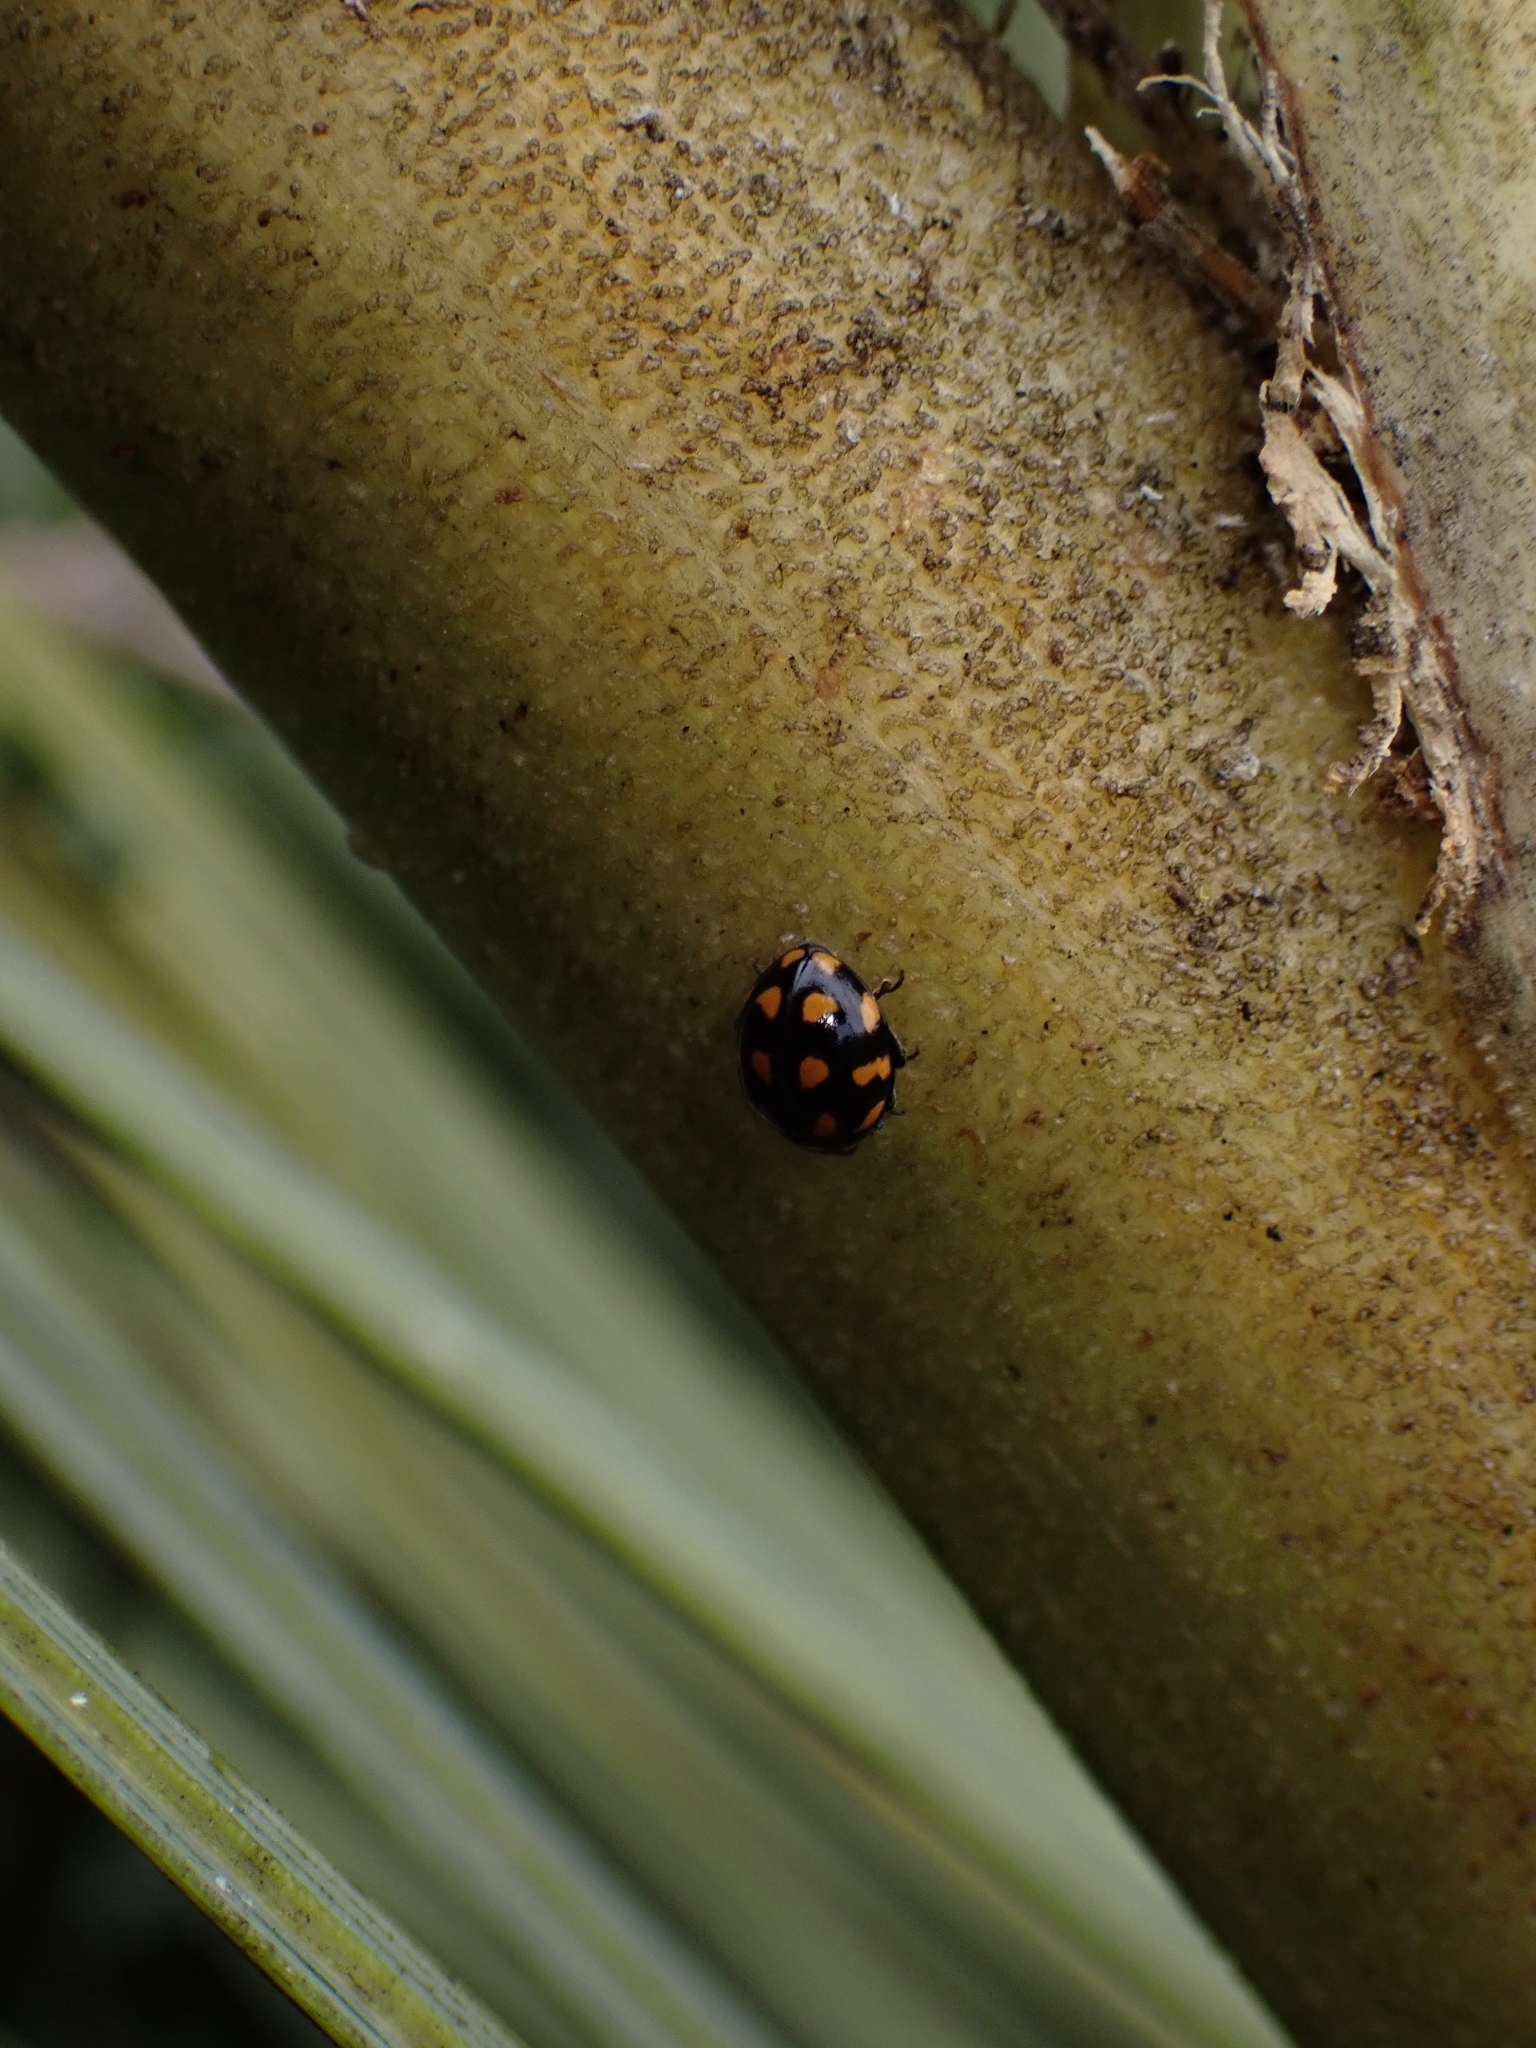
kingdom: Animalia
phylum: Arthropoda
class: Insecta
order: Coleoptera
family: Coccinellidae
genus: Coccinella
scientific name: Coccinella leonina
